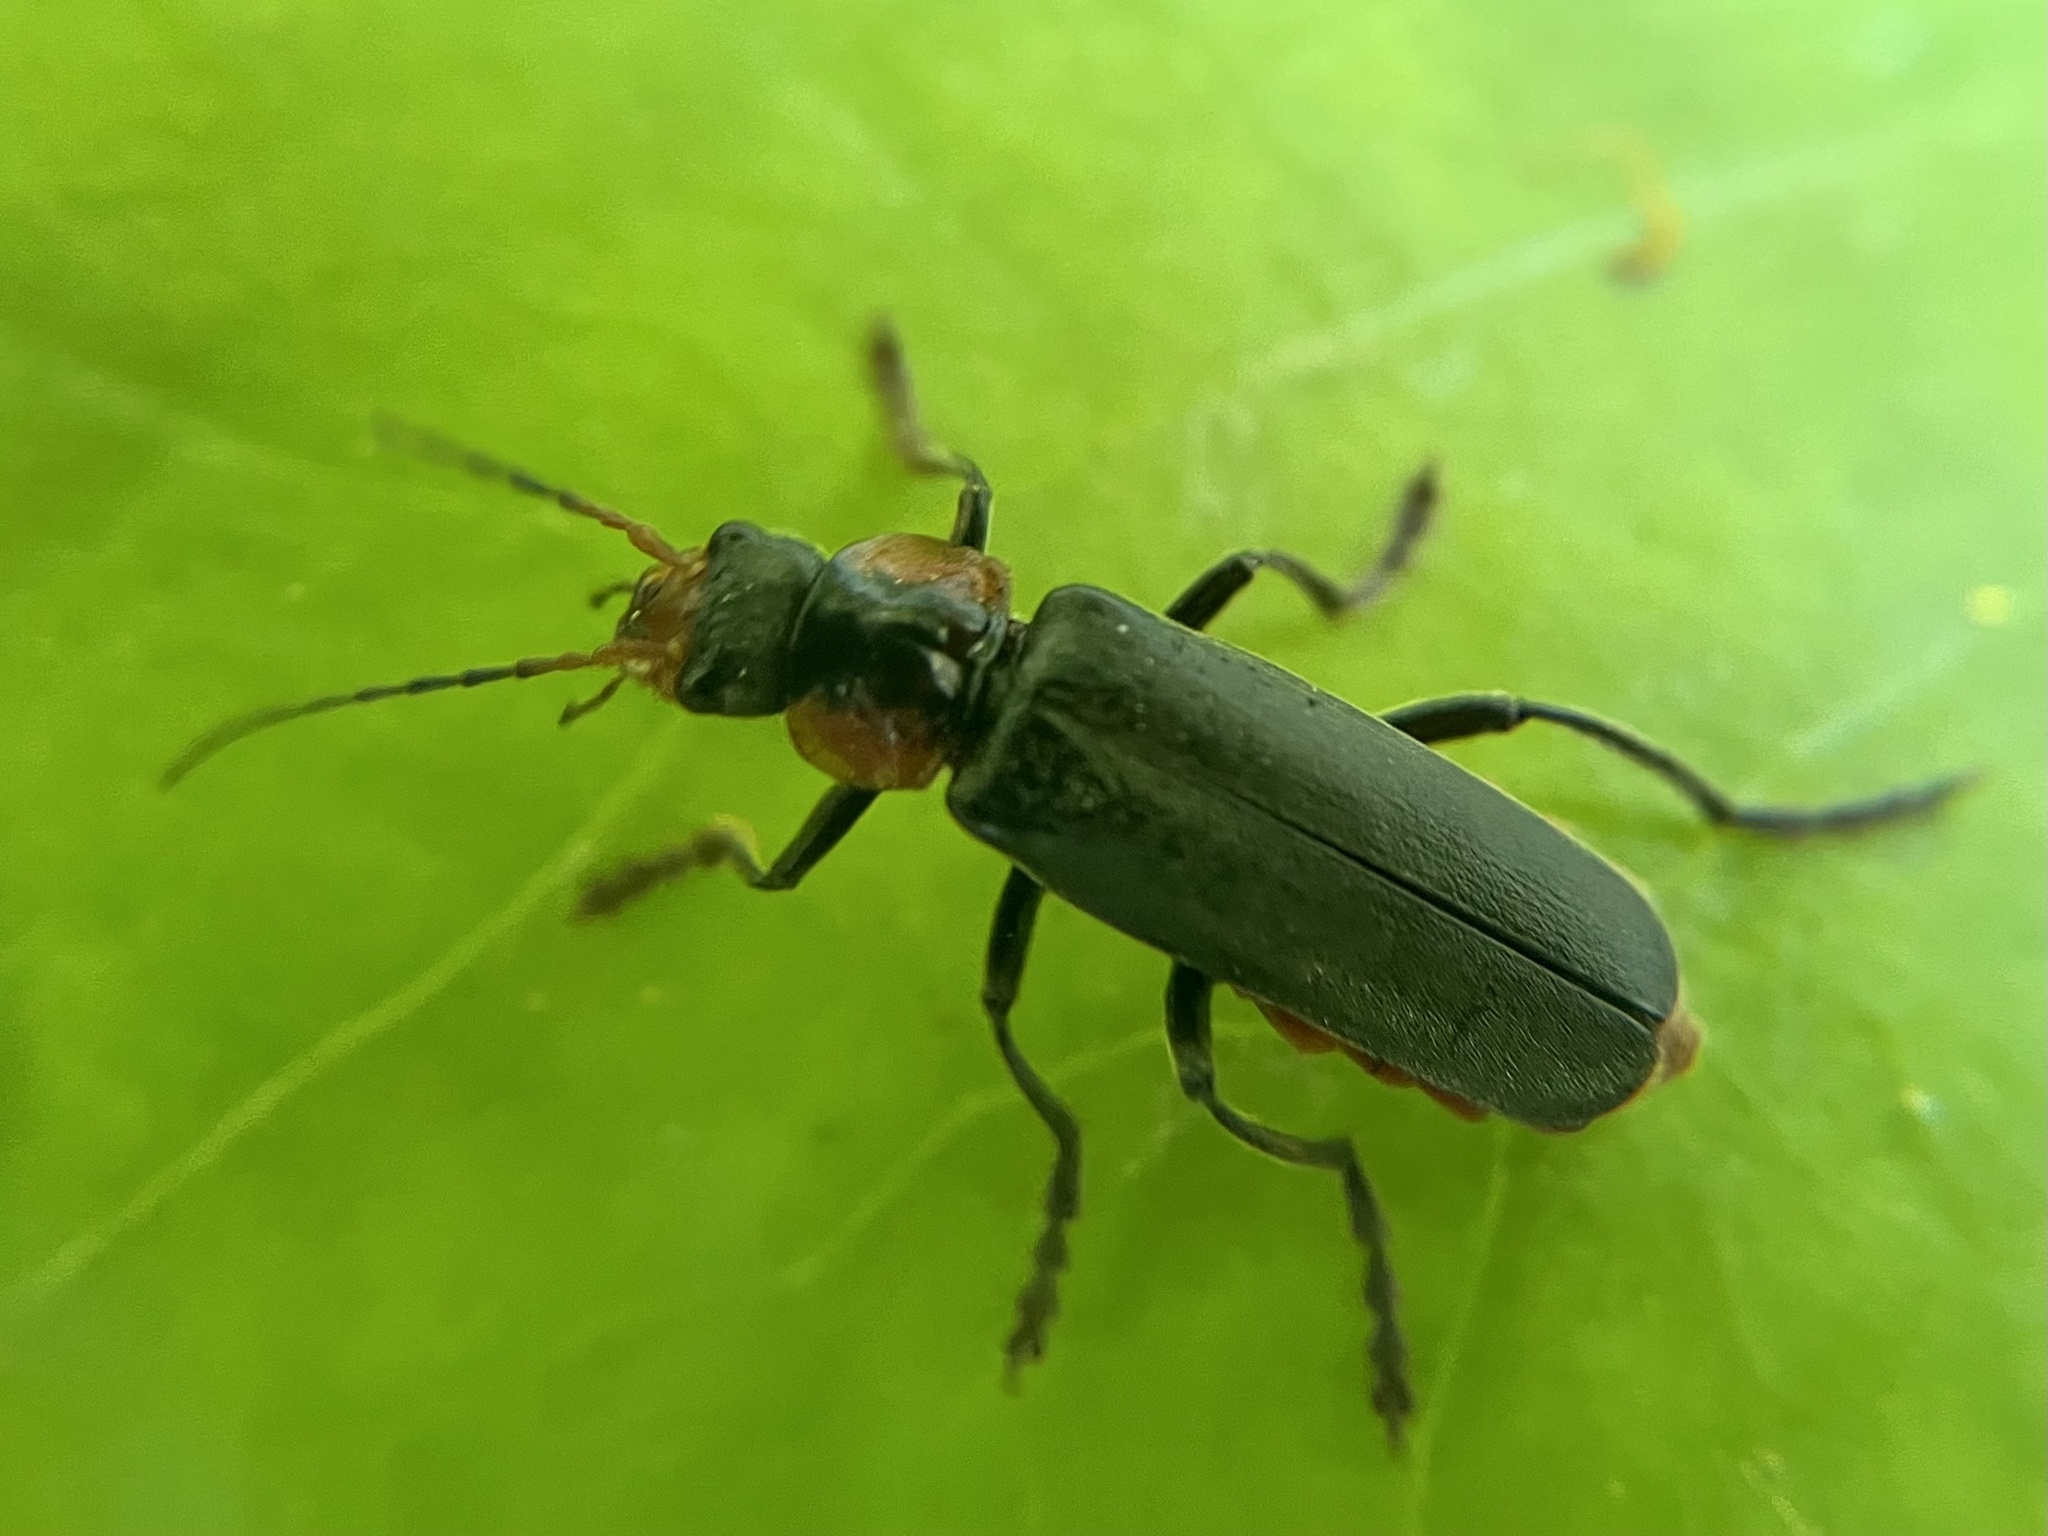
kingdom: Animalia
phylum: Arthropoda
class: Insecta
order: Coleoptera
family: Cantharidae
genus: Cantharis
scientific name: Cantharis fusca
